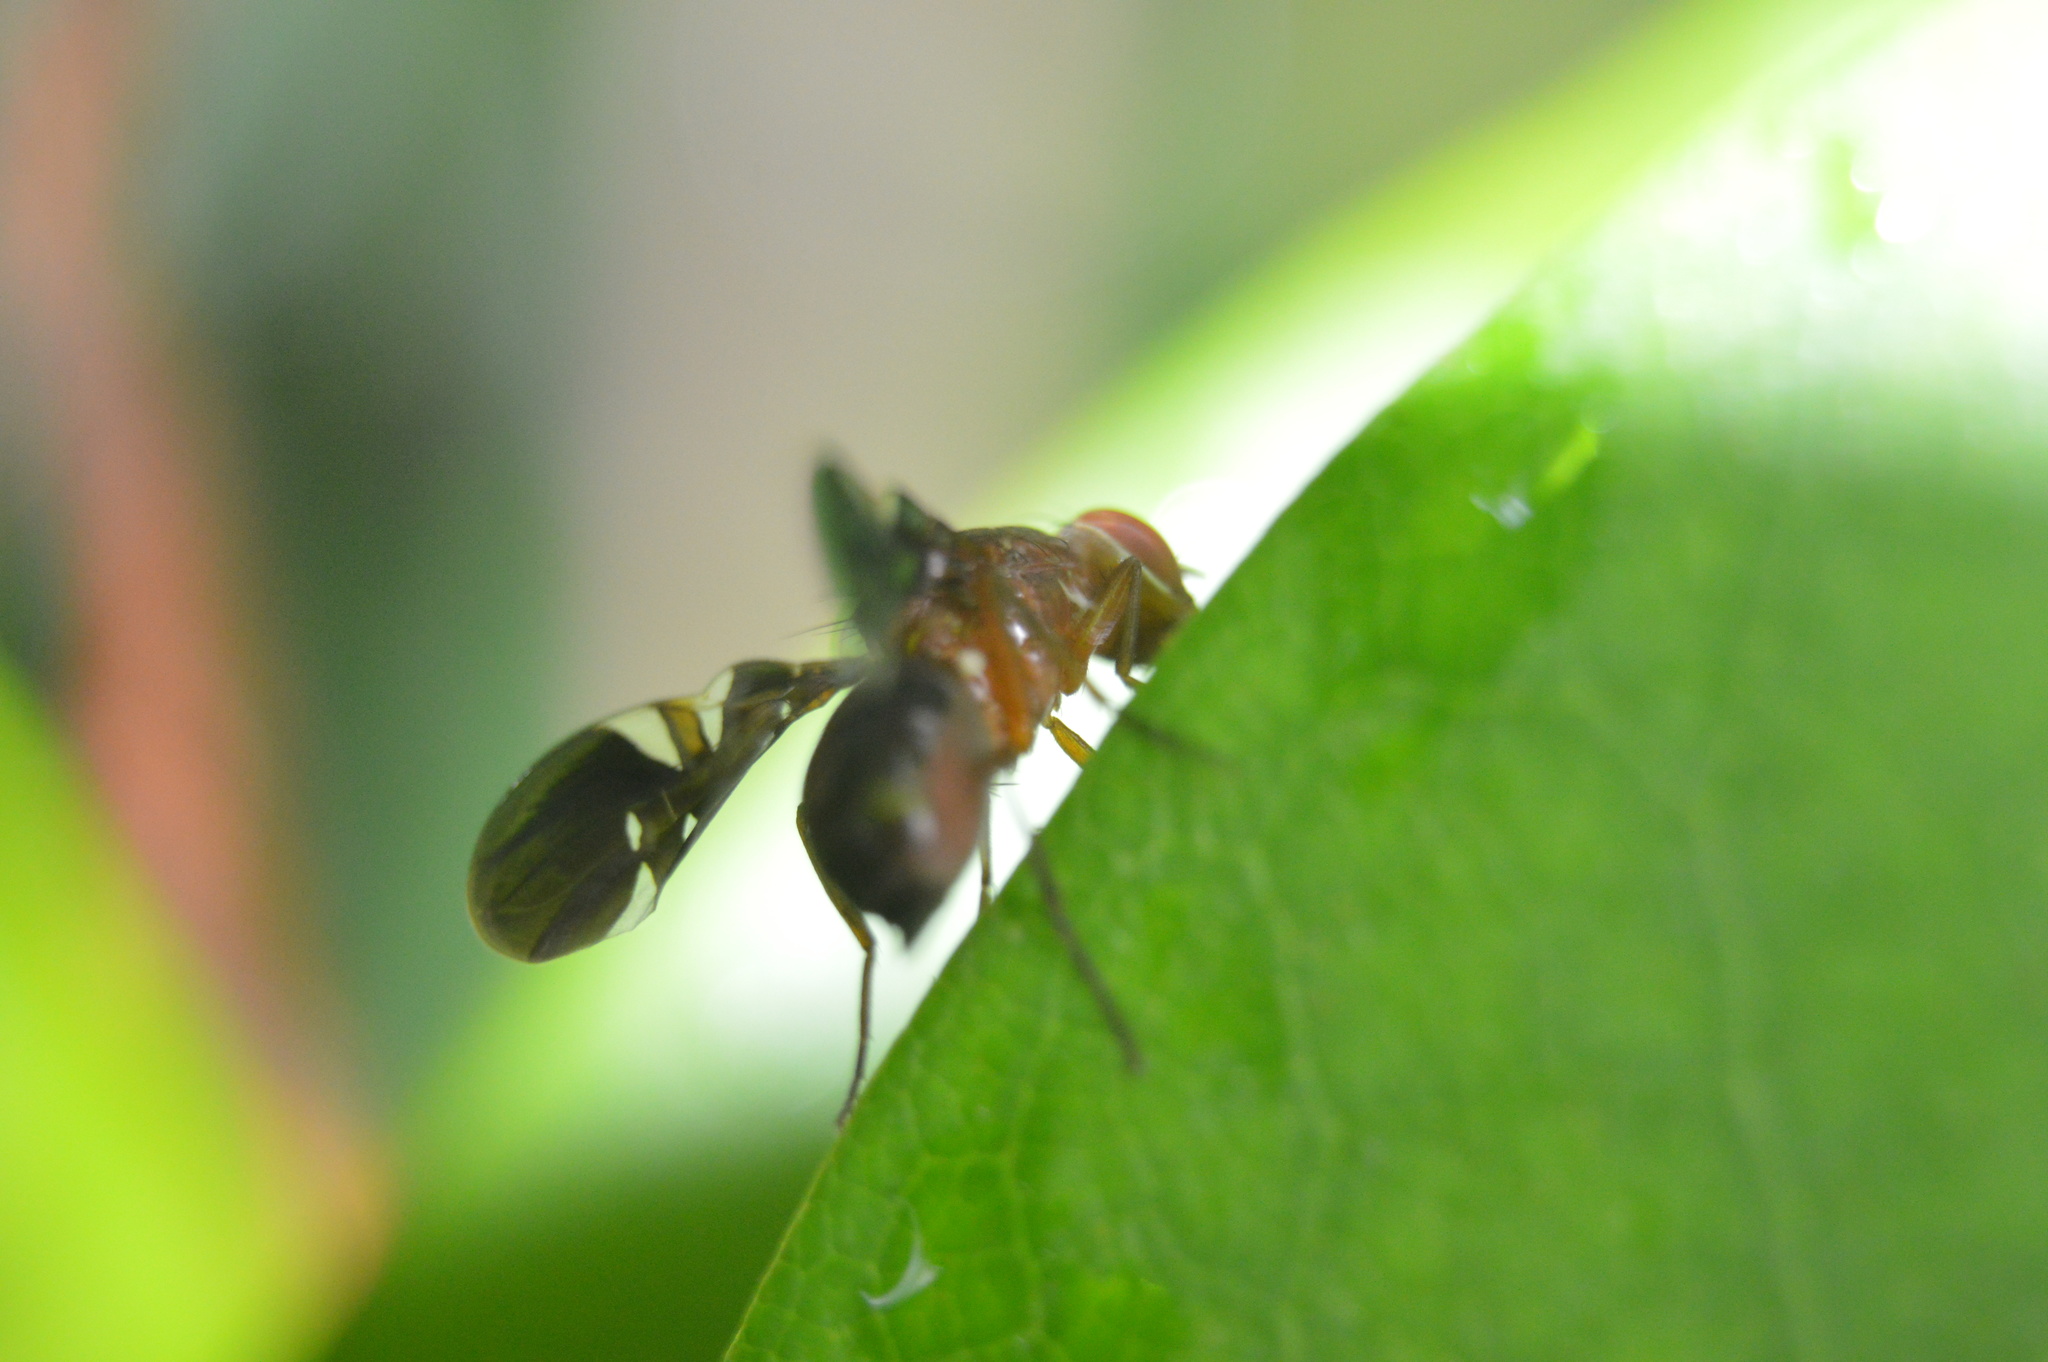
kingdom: Animalia
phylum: Arthropoda
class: Insecta
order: Diptera
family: Ulidiidae
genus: Delphinia
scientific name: Delphinia picta
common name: Common picture-winged fly
